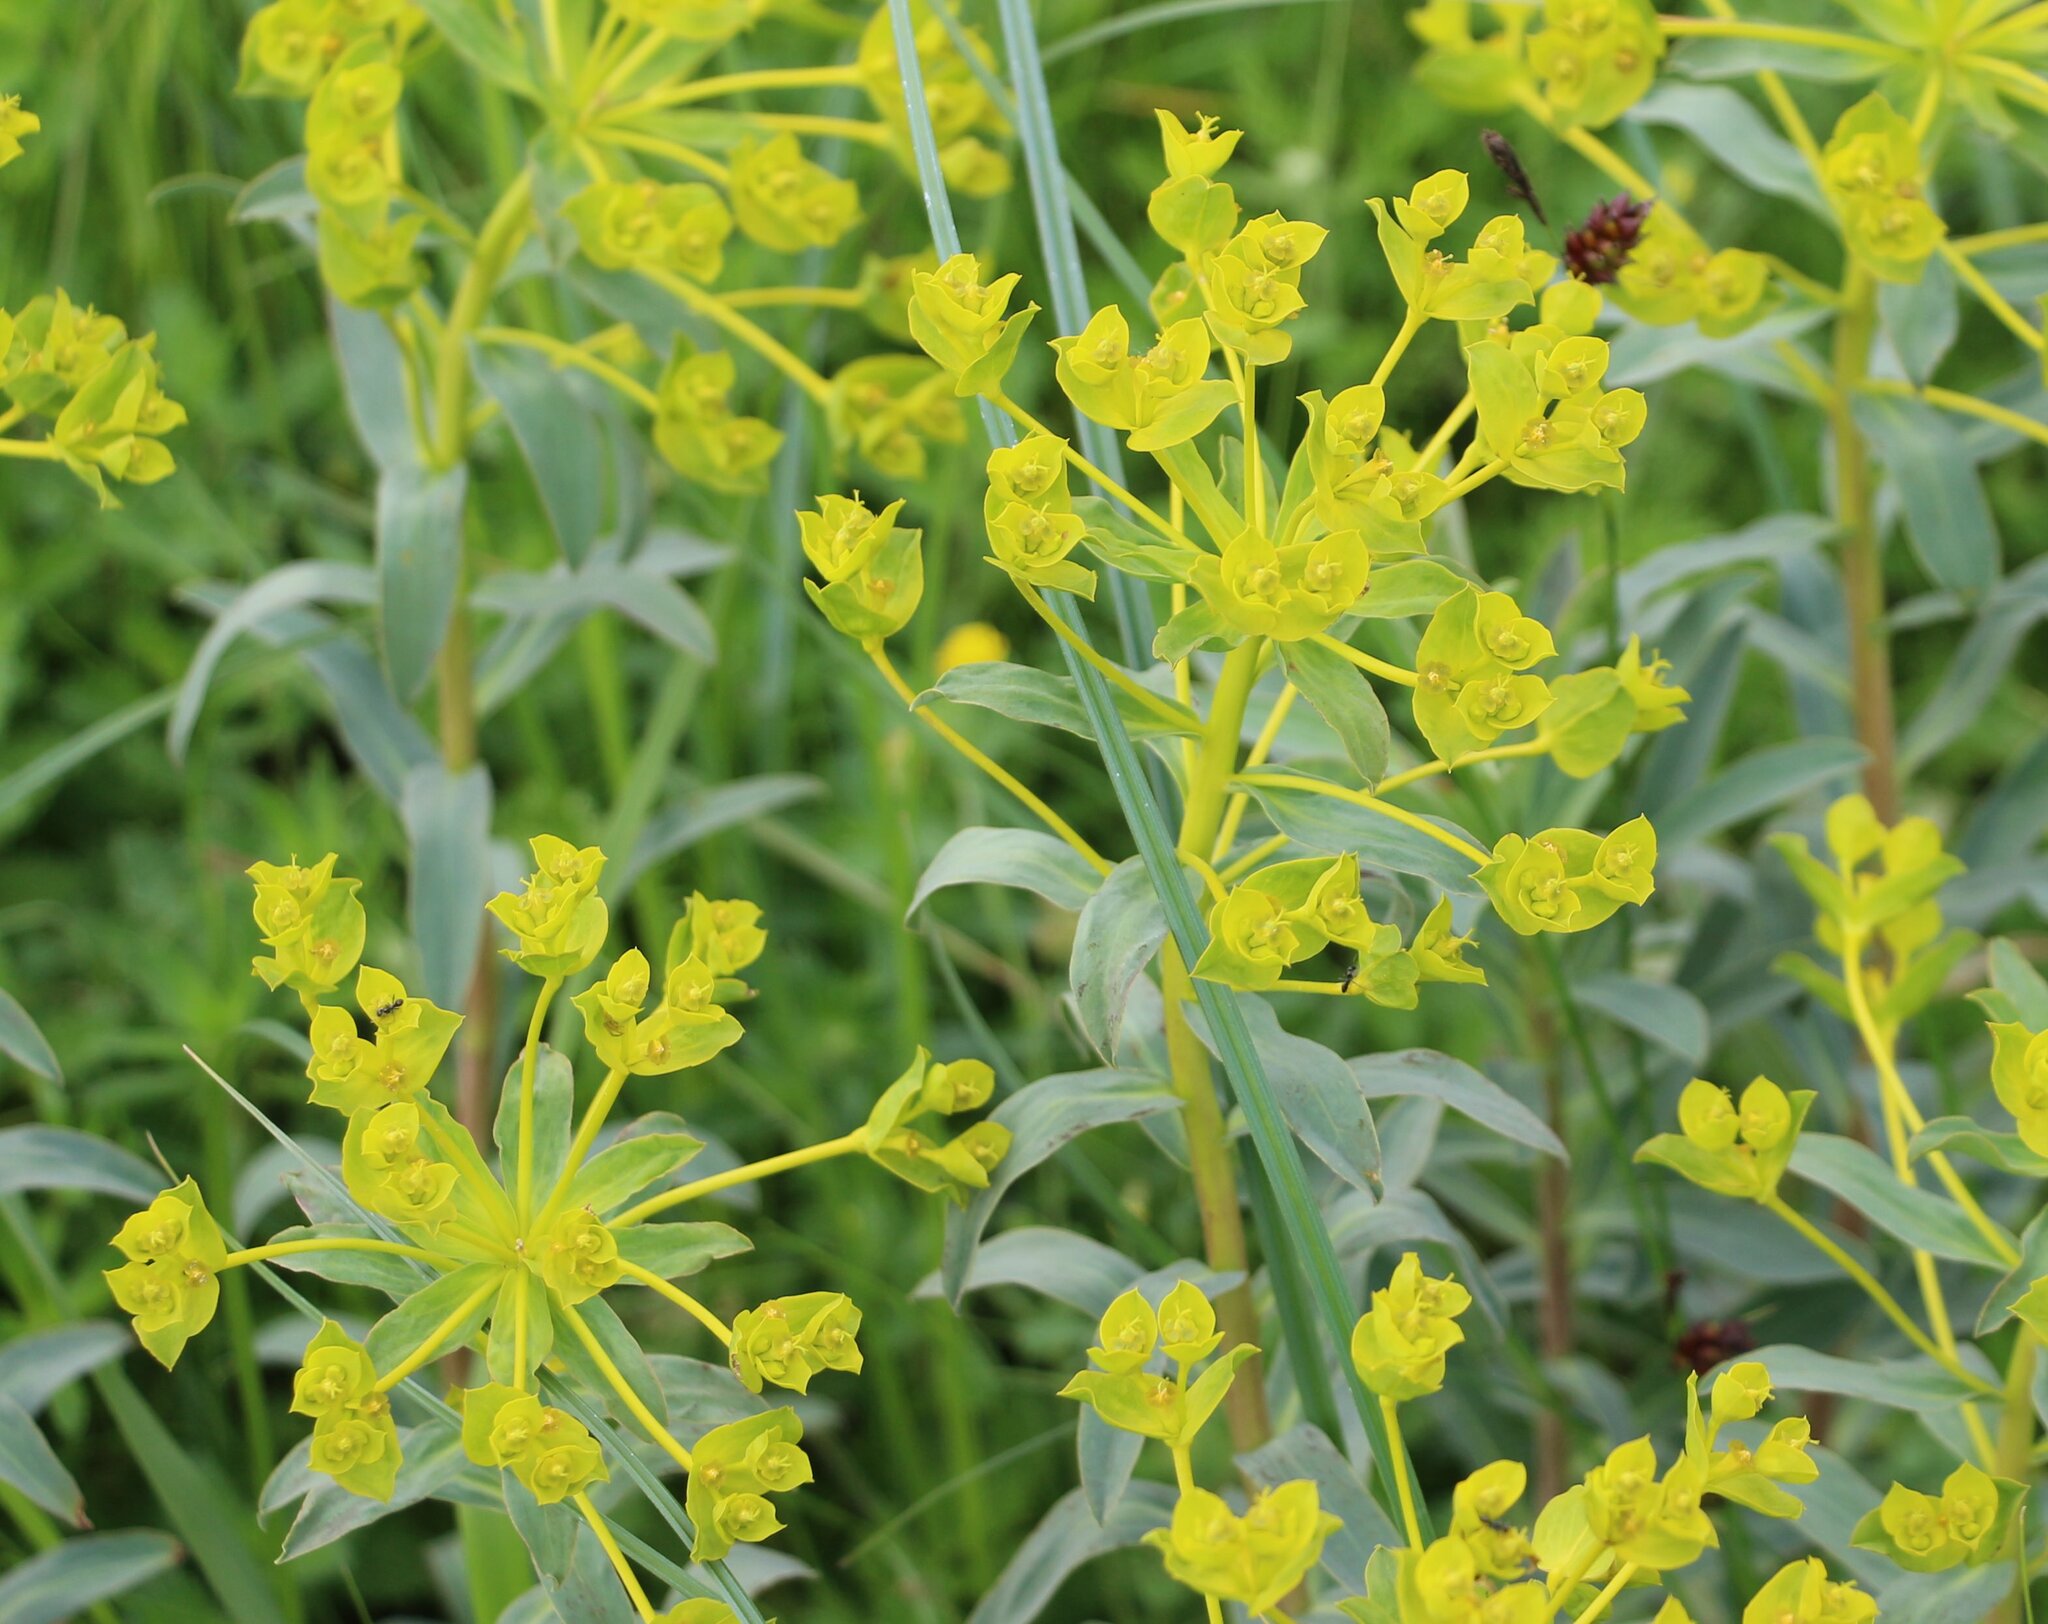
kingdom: Plantae
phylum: Tracheophyta
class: Magnoliopsida
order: Malpighiales
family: Euphorbiaceae
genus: Euphorbia
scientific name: Euphorbia stepposa
